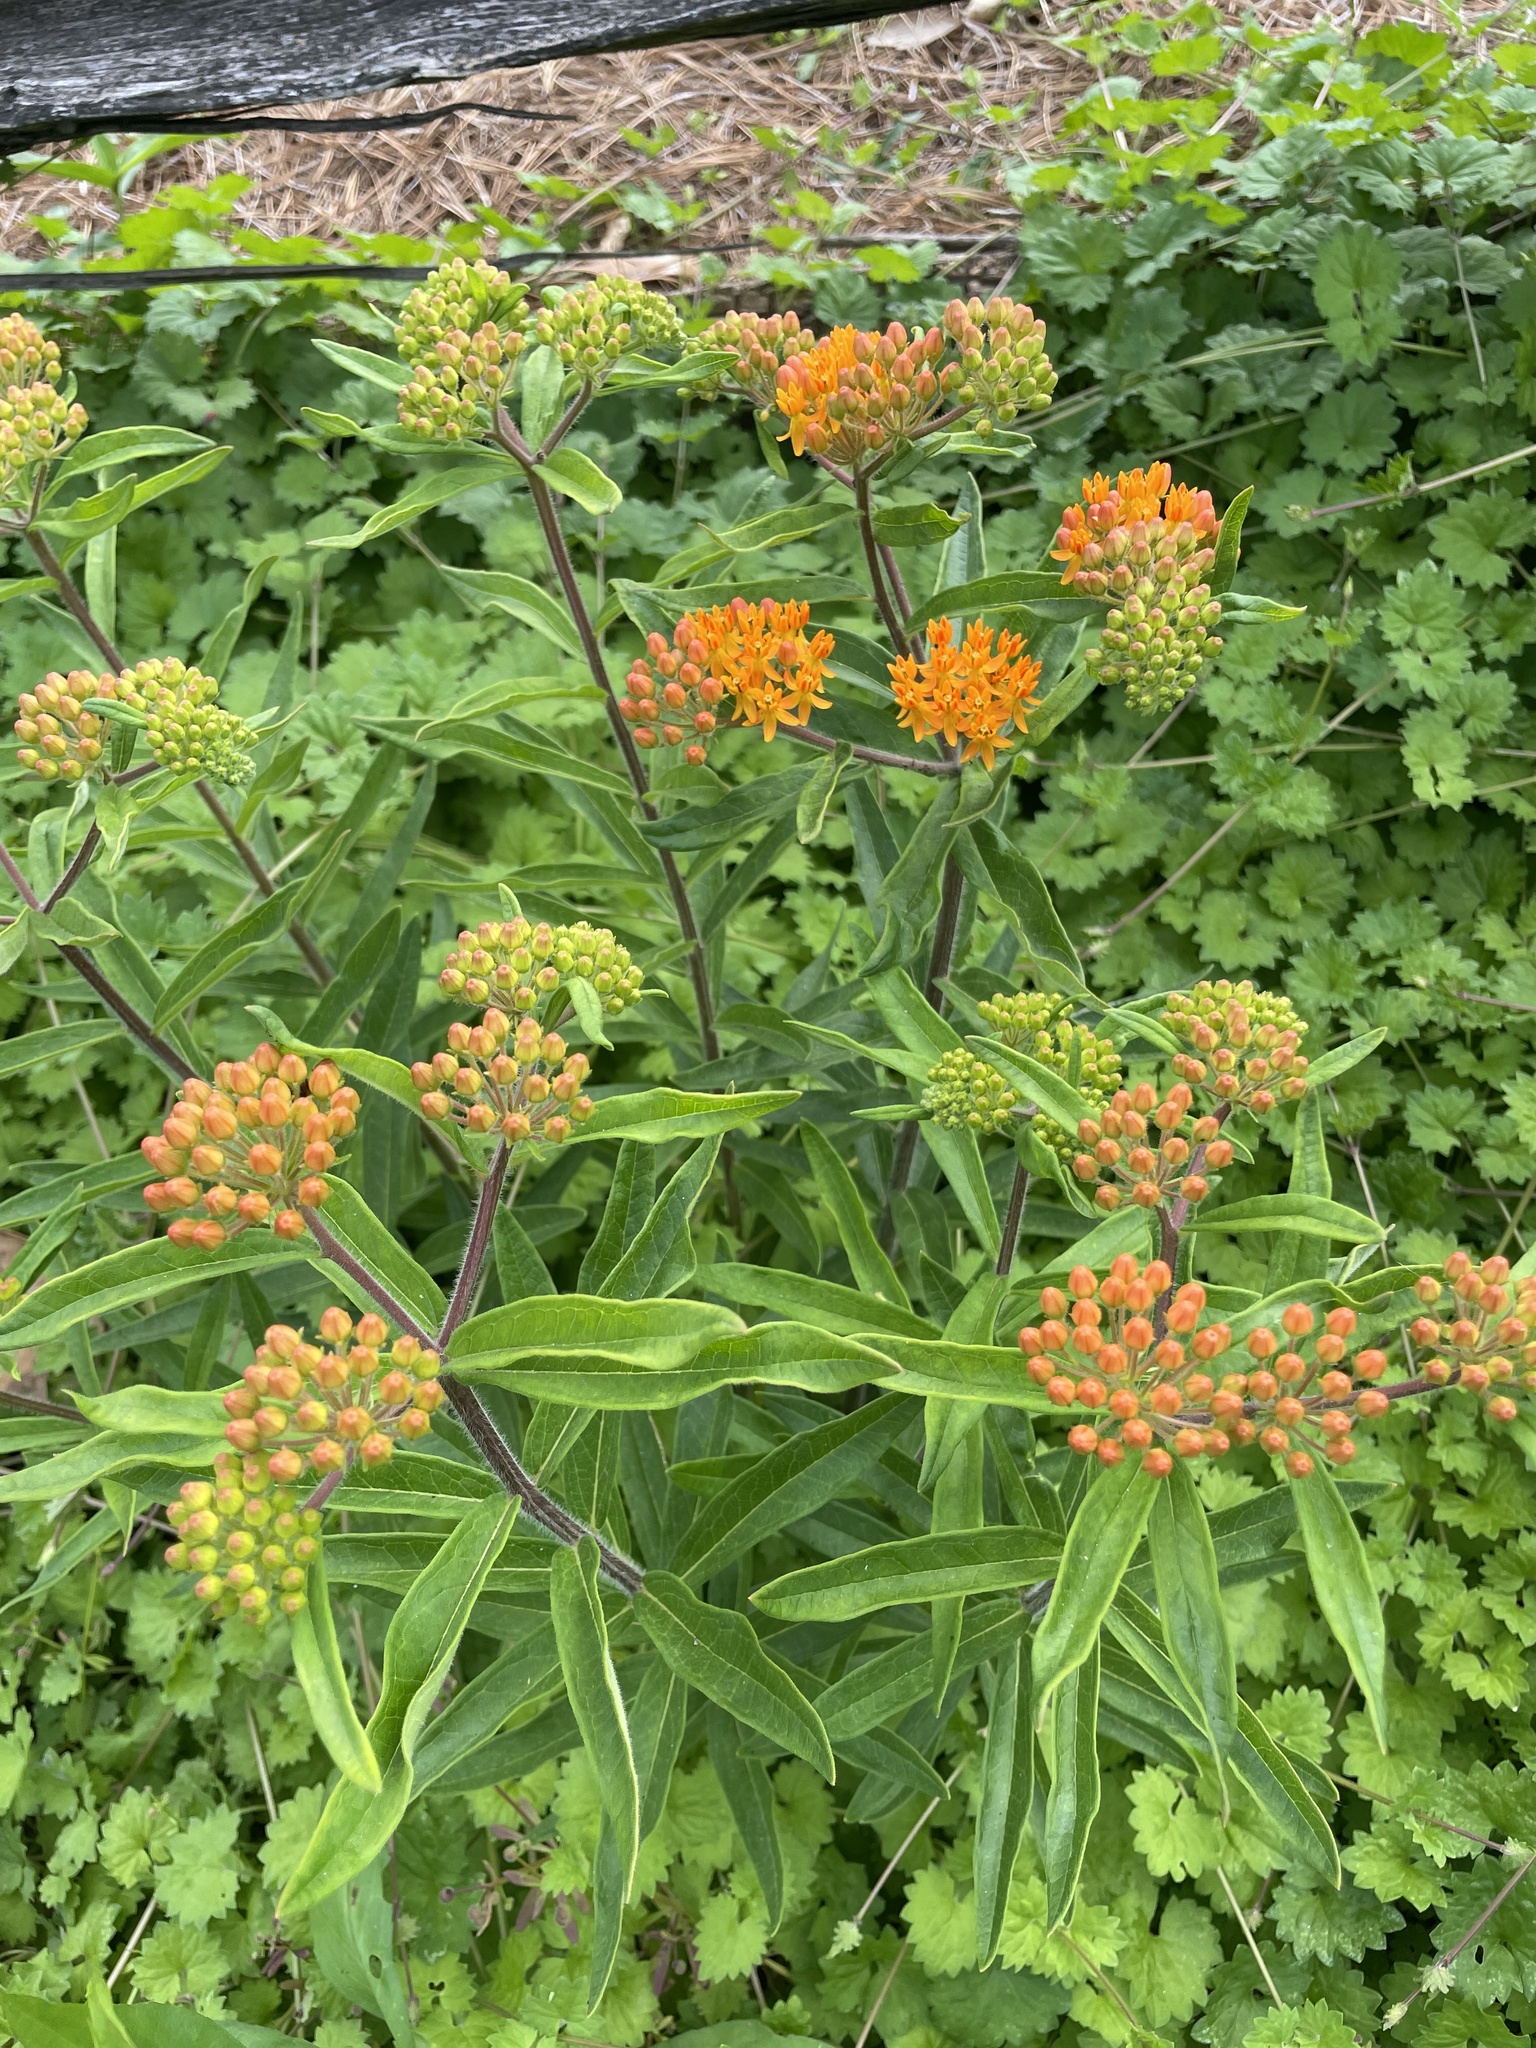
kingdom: Plantae
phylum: Tracheophyta
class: Magnoliopsida
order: Gentianales
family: Apocynaceae
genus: Asclepias
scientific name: Asclepias tuberosa
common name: Butterfly milkweed
